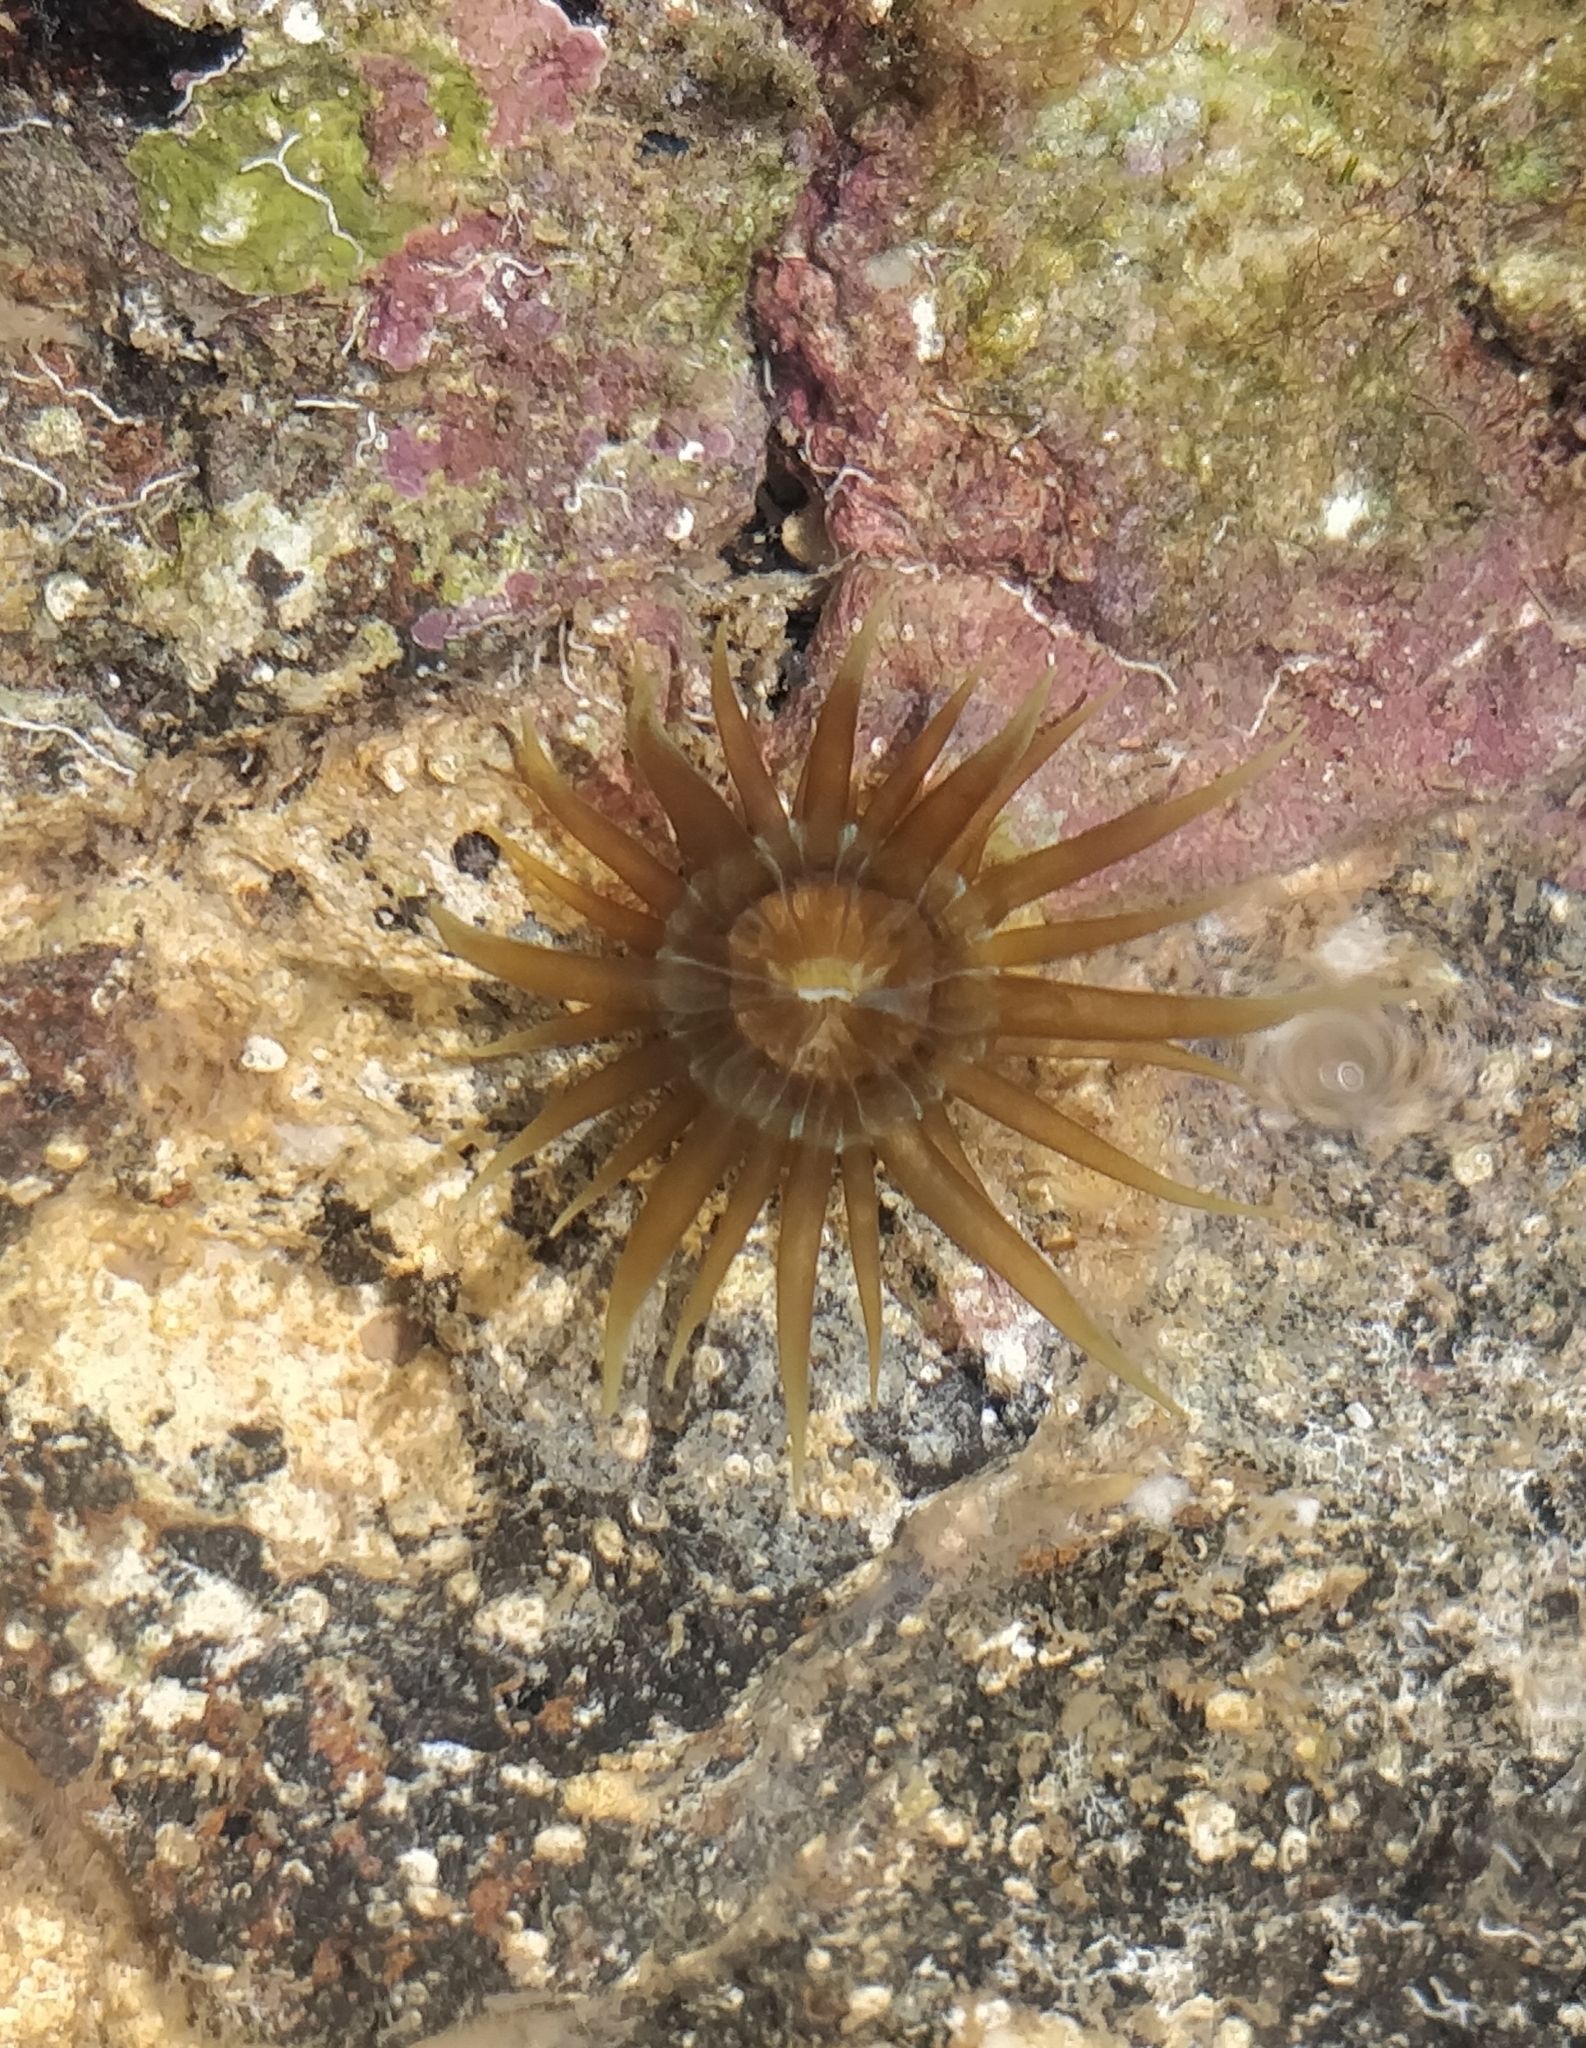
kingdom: Animalia
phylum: Cnidaria
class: Anthozoa
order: Actiniaria
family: Aiptasiidae
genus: Aiptasia
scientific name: Aiptasia couchii
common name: Trumpet anemone
